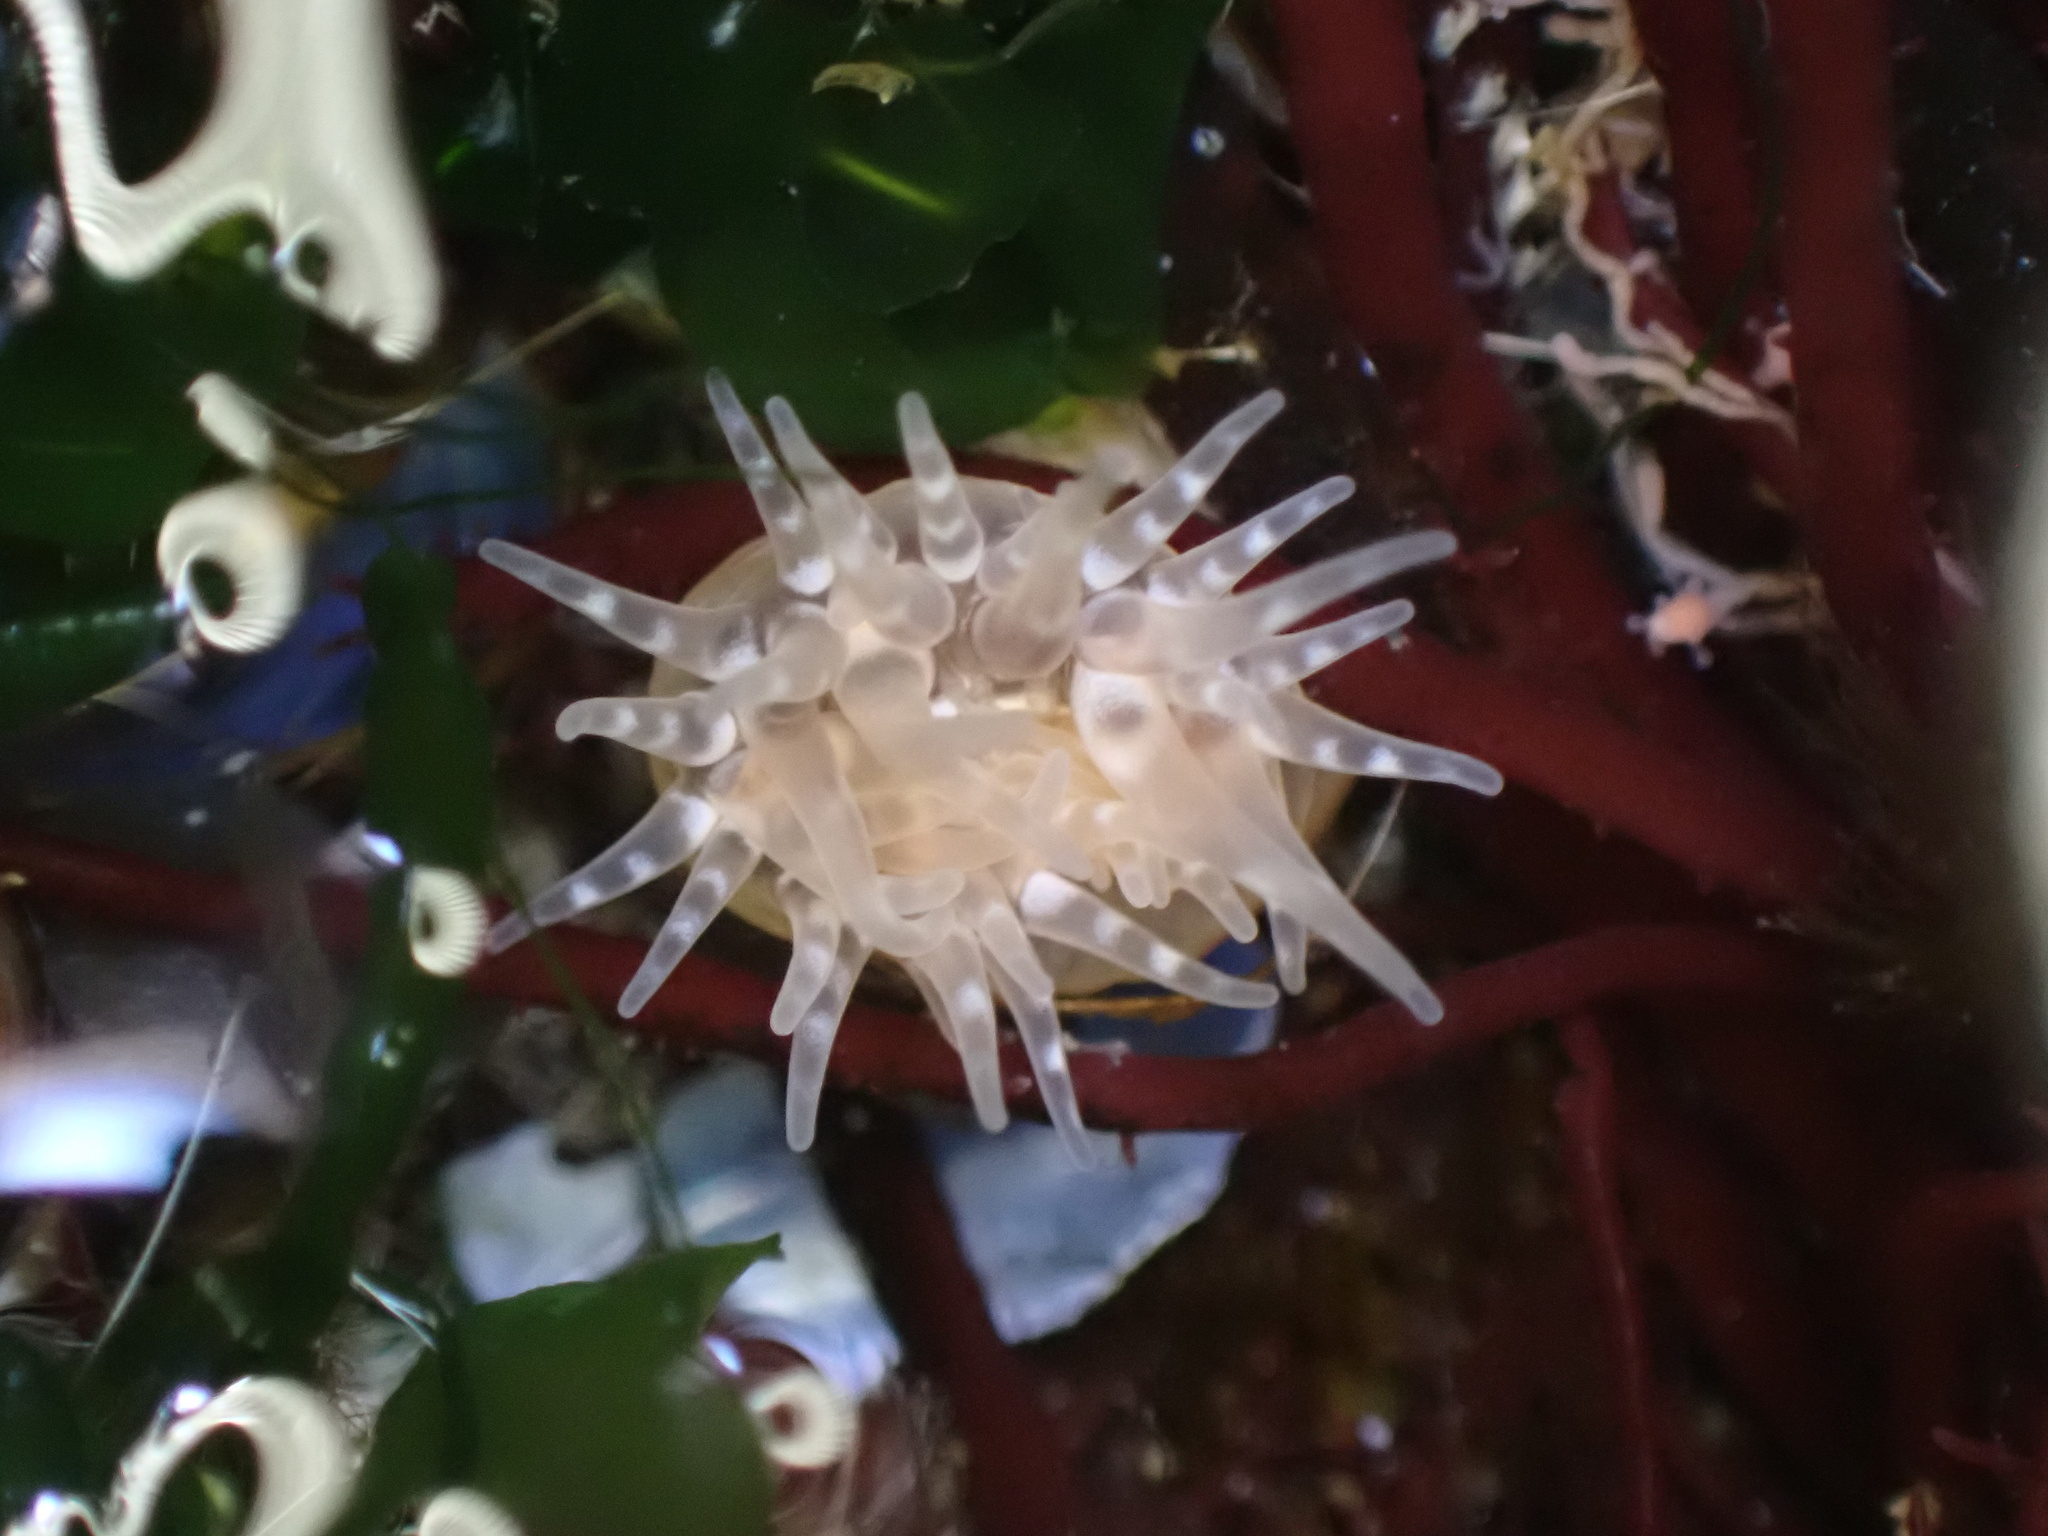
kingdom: Animalia
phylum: Cnidaria
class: Anthozoa
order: Actiniaria
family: Actiniidae
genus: Aulactinia
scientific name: Aulactinia stella
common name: Silver-spotted sea anemone
